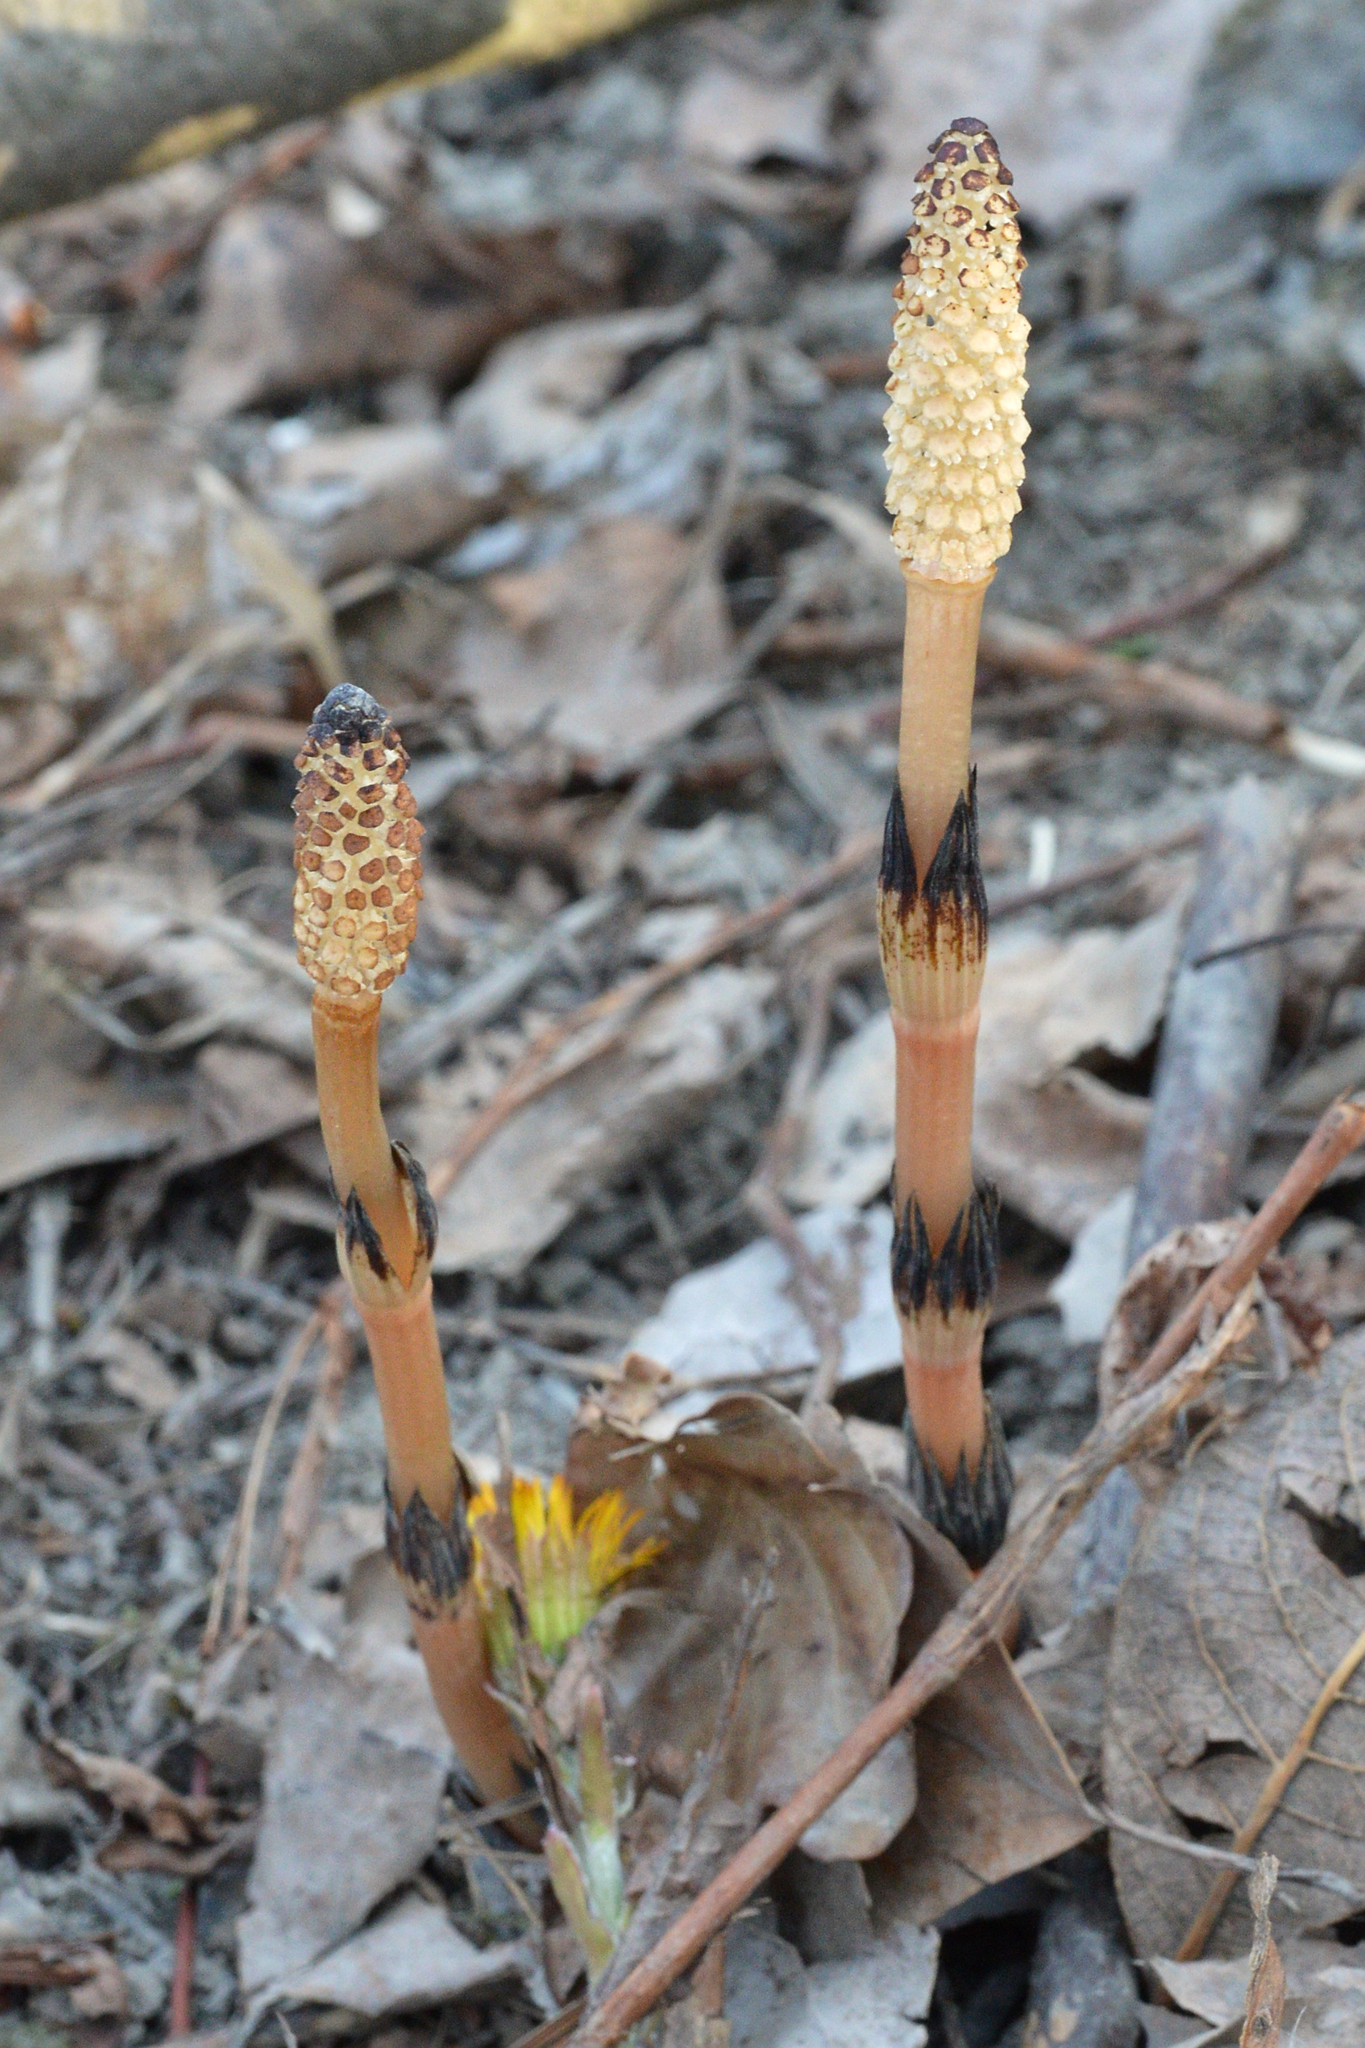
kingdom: Plantae
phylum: Tracheophyta
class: Polypodiopsida
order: Equisetales
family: Equisetaceae
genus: Equisetum
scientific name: Equisetum arvense
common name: Field horsetail
